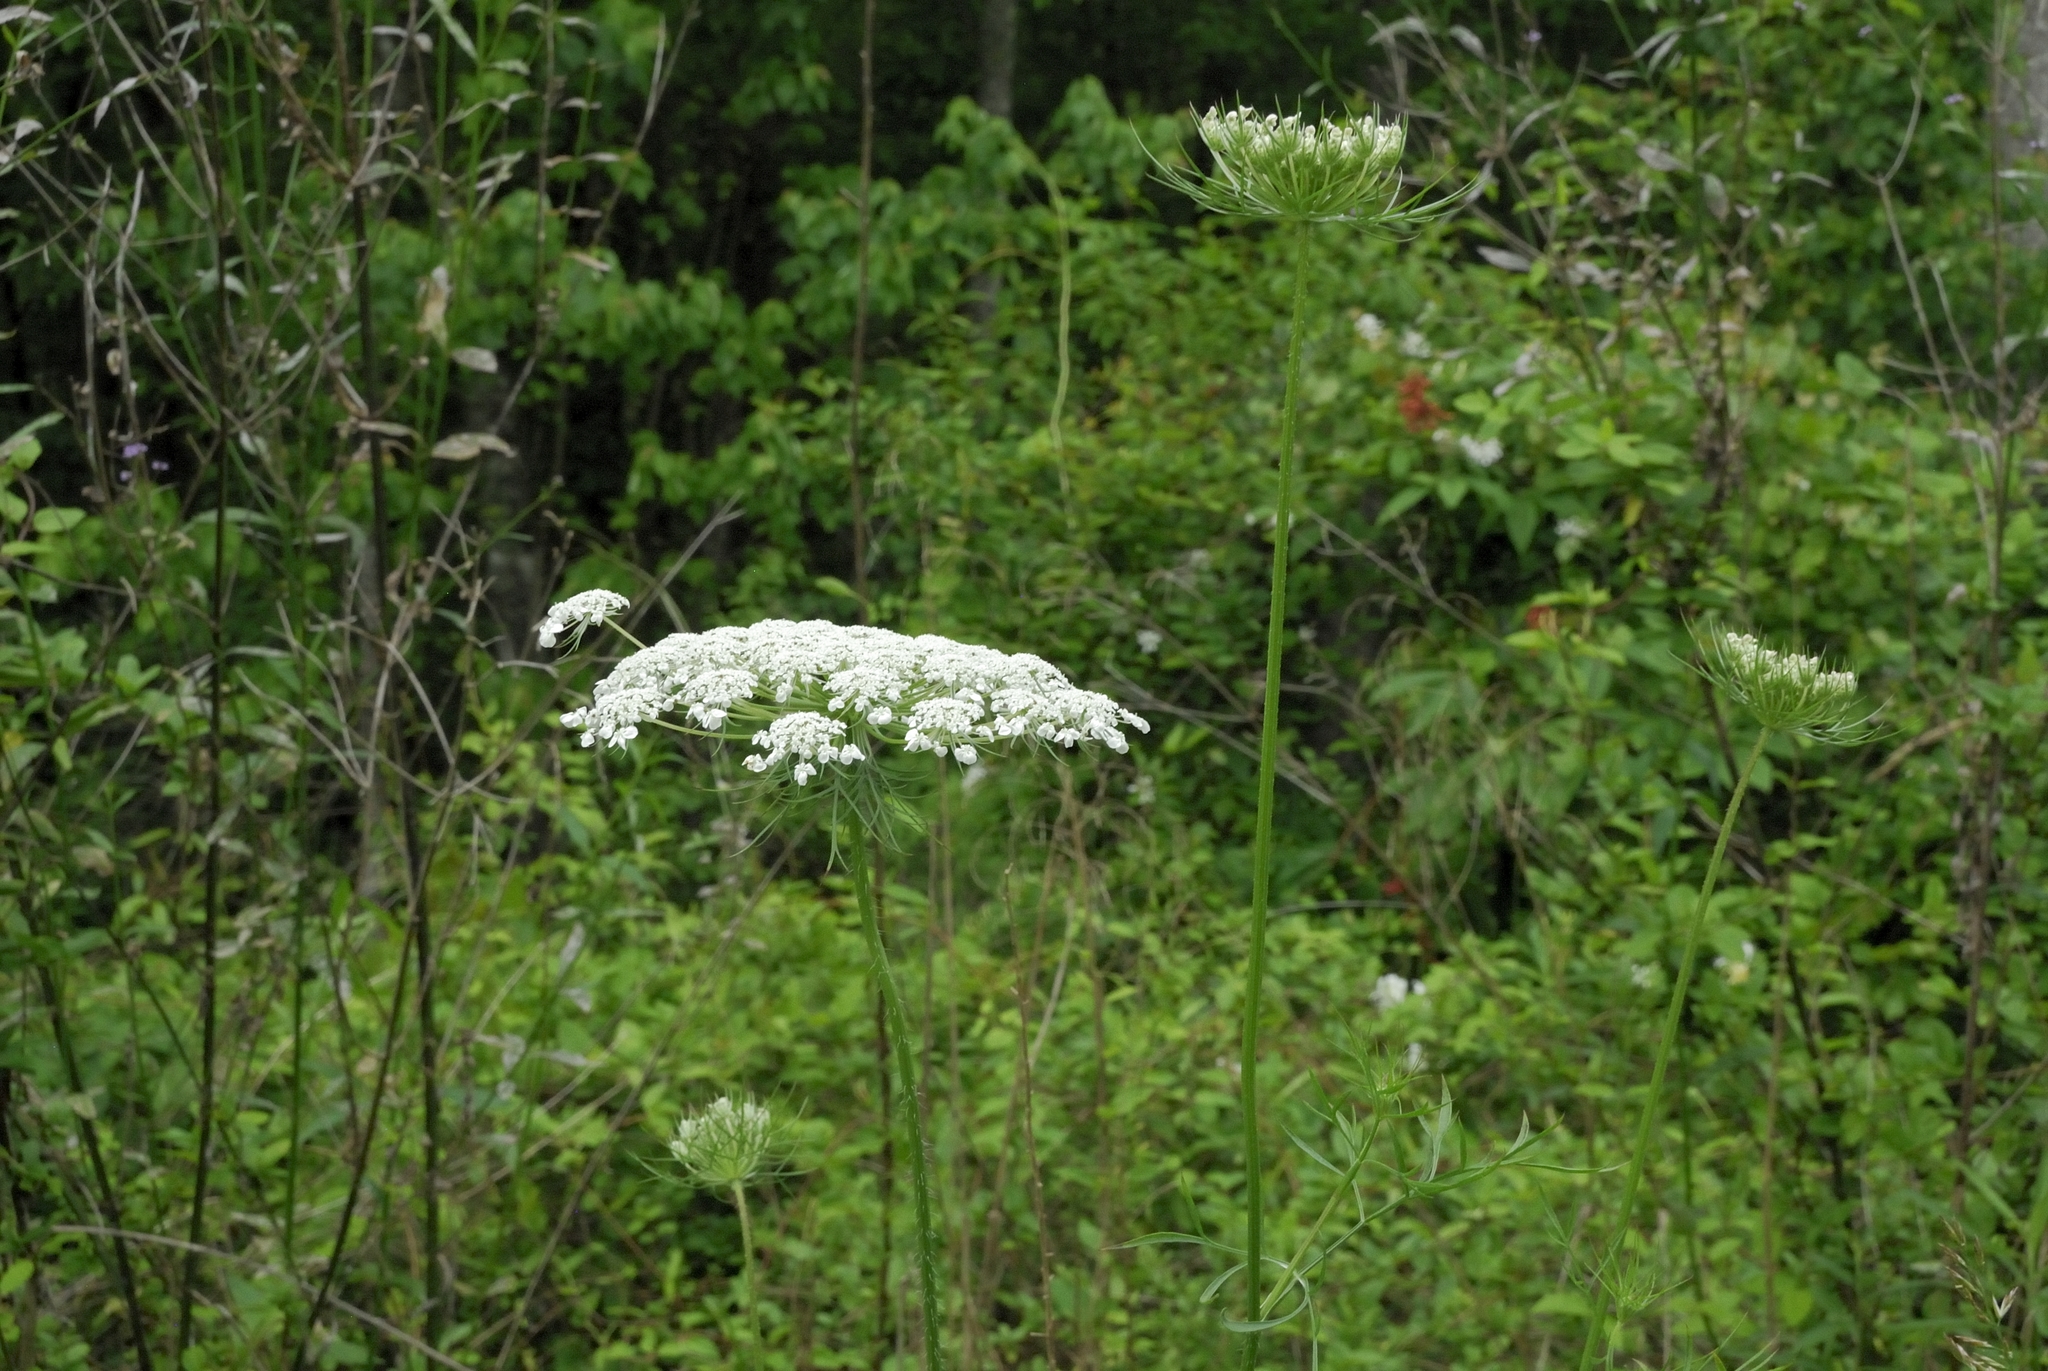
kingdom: Plantae
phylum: Tracheophyta
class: Magnoliopsida
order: Apiales
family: Apiaceae
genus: Daucus
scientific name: Daucus carota
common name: Wild carrot
